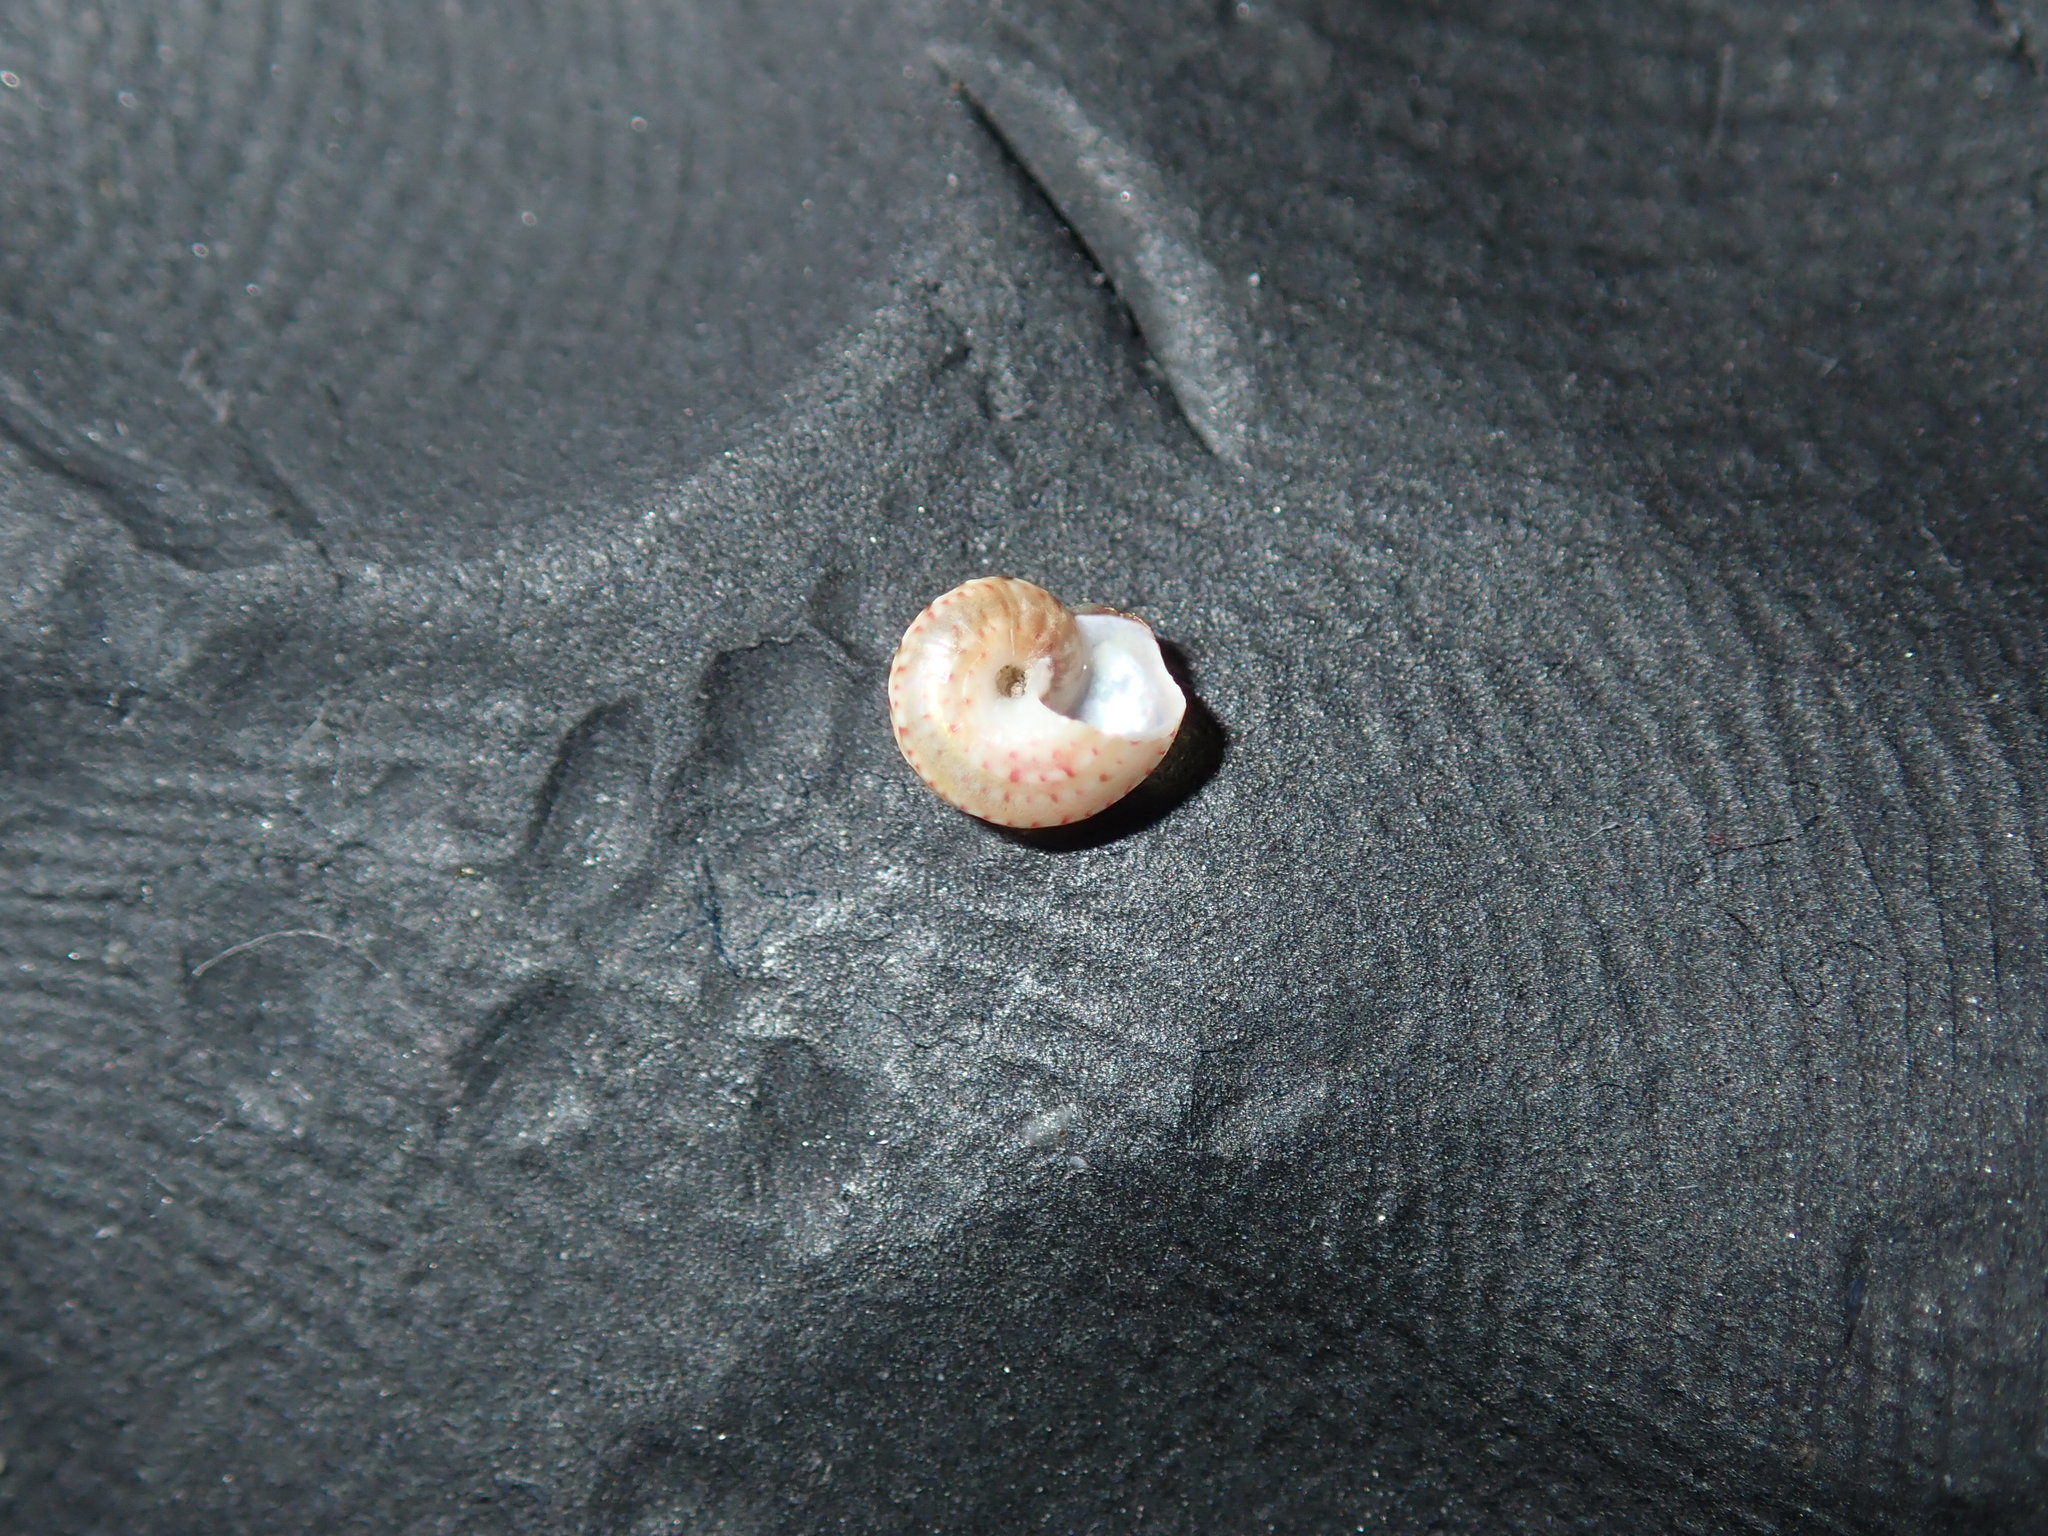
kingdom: Animalia
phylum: Mollusca
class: Gastropoda
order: Trochida
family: Trochidae
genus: Cantharidella
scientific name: Cantharidella picturata
